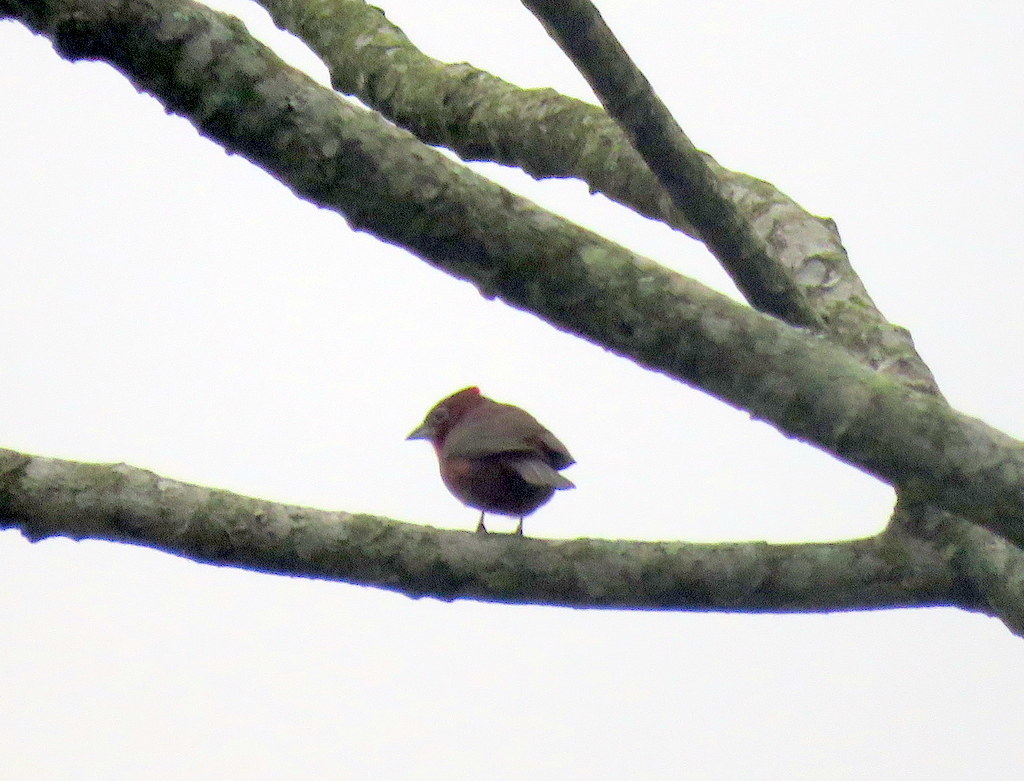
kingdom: Animalia
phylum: Chordata
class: Aves
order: Passeriformes
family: Thraupidae
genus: Coryphospingus
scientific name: Coryphospingus cucullatus
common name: Red pileated finch
